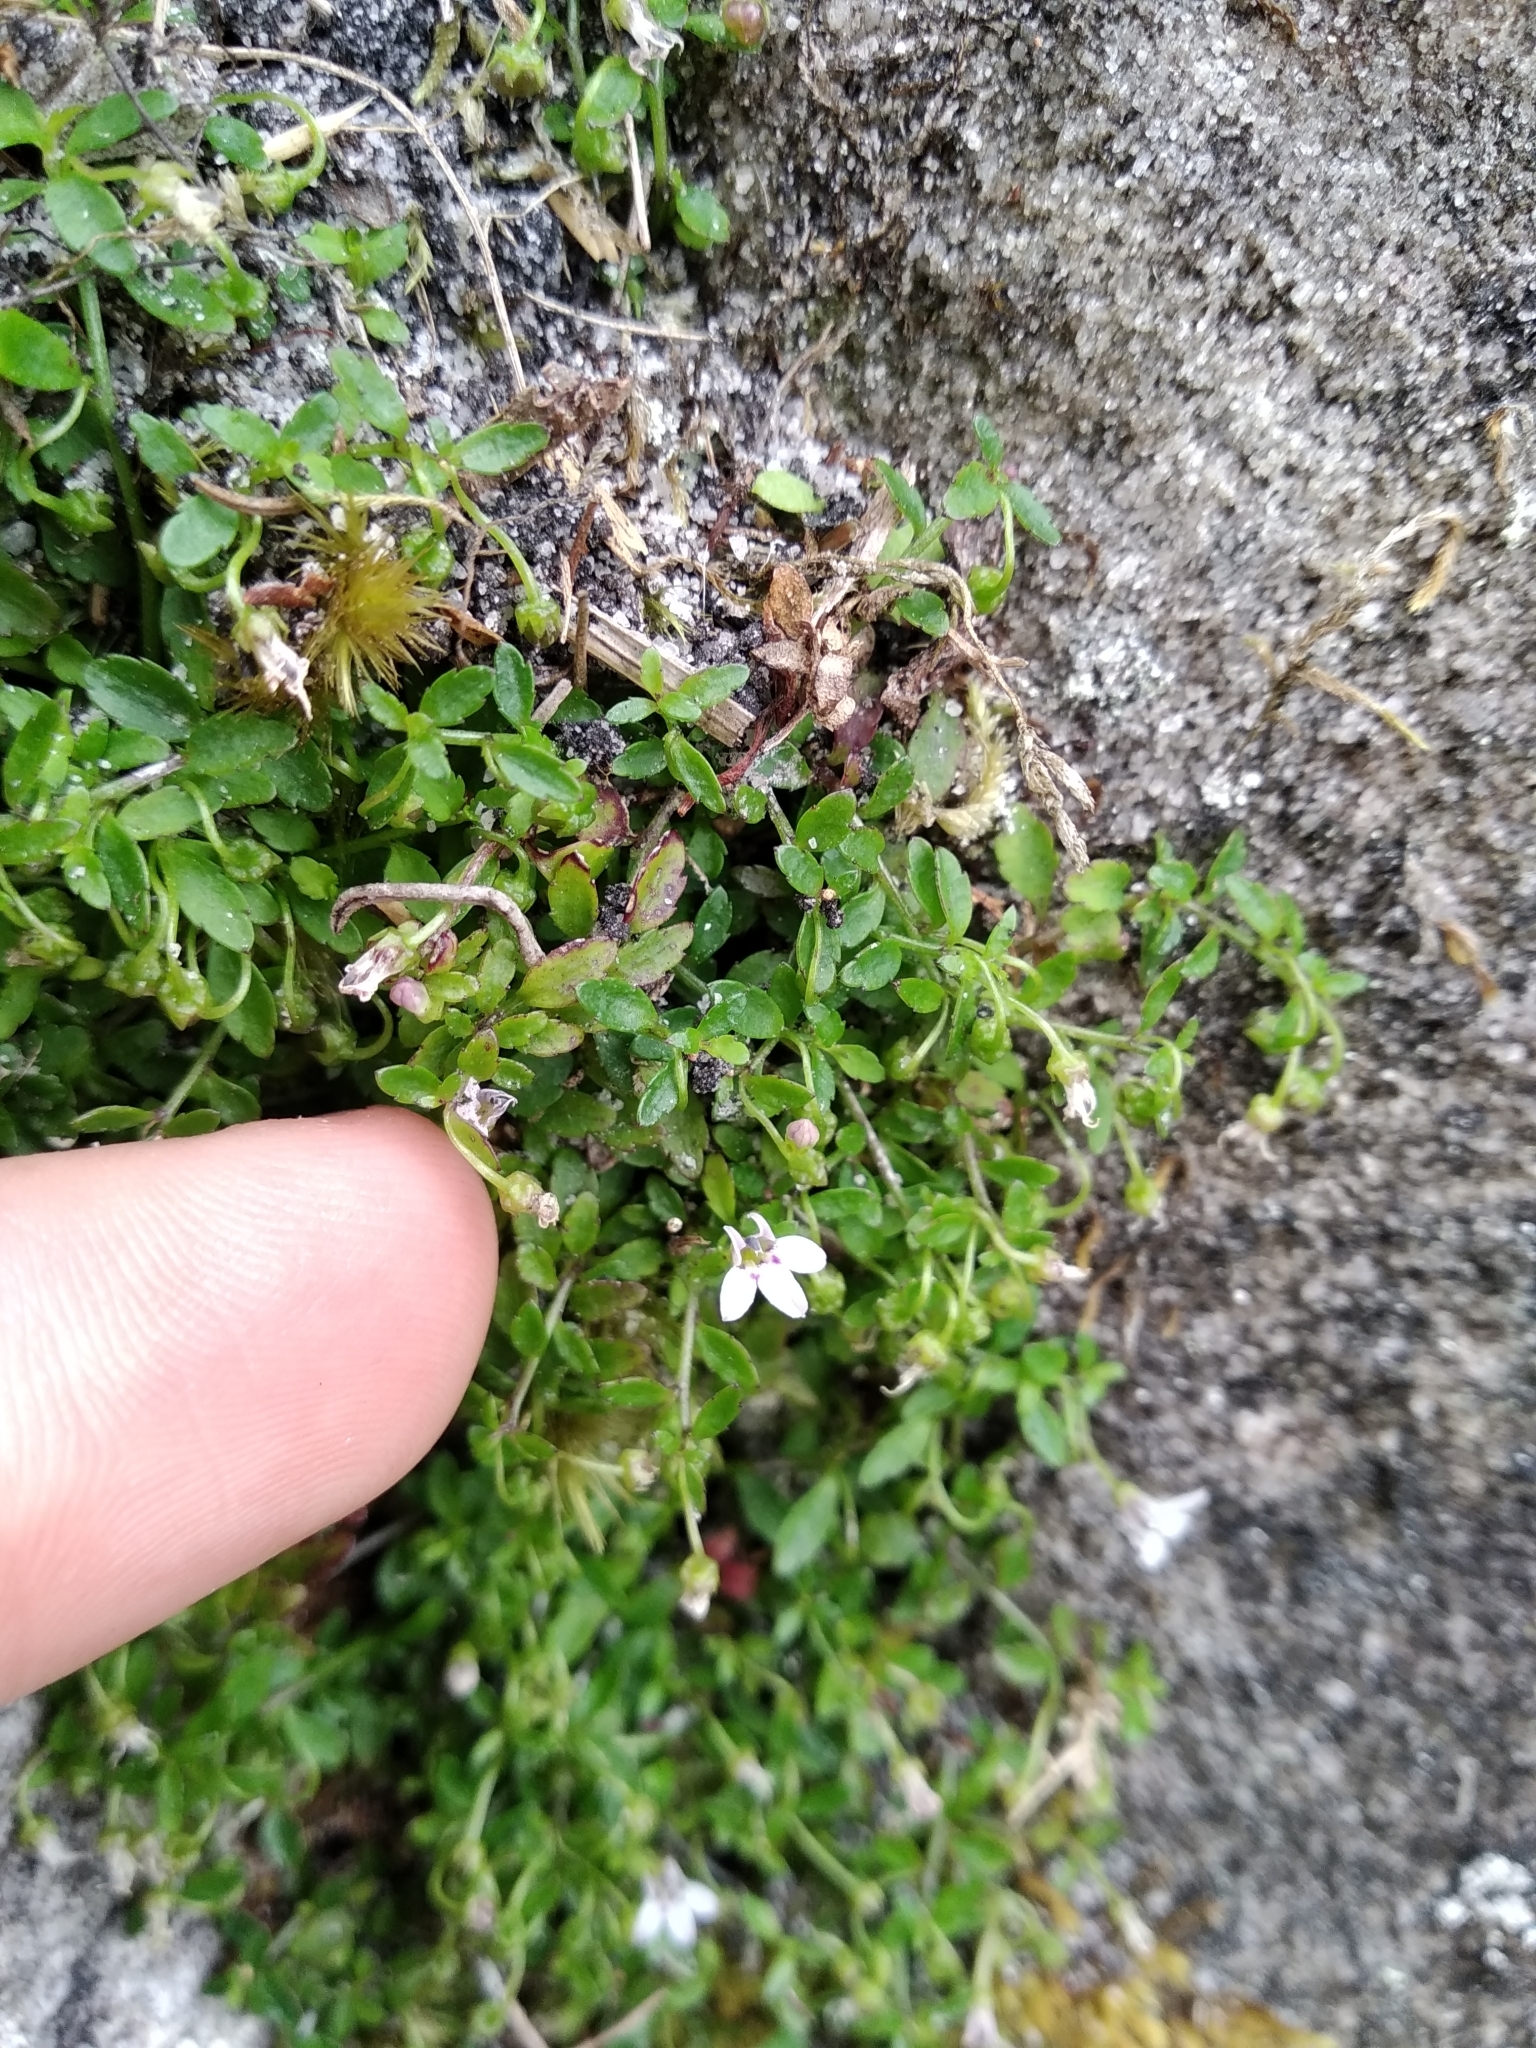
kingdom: Plantae
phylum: Tracheophyta
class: Magnoliopsida
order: Asterales
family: Campanulaceae
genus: Unigenes
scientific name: Unigenes humifusa
